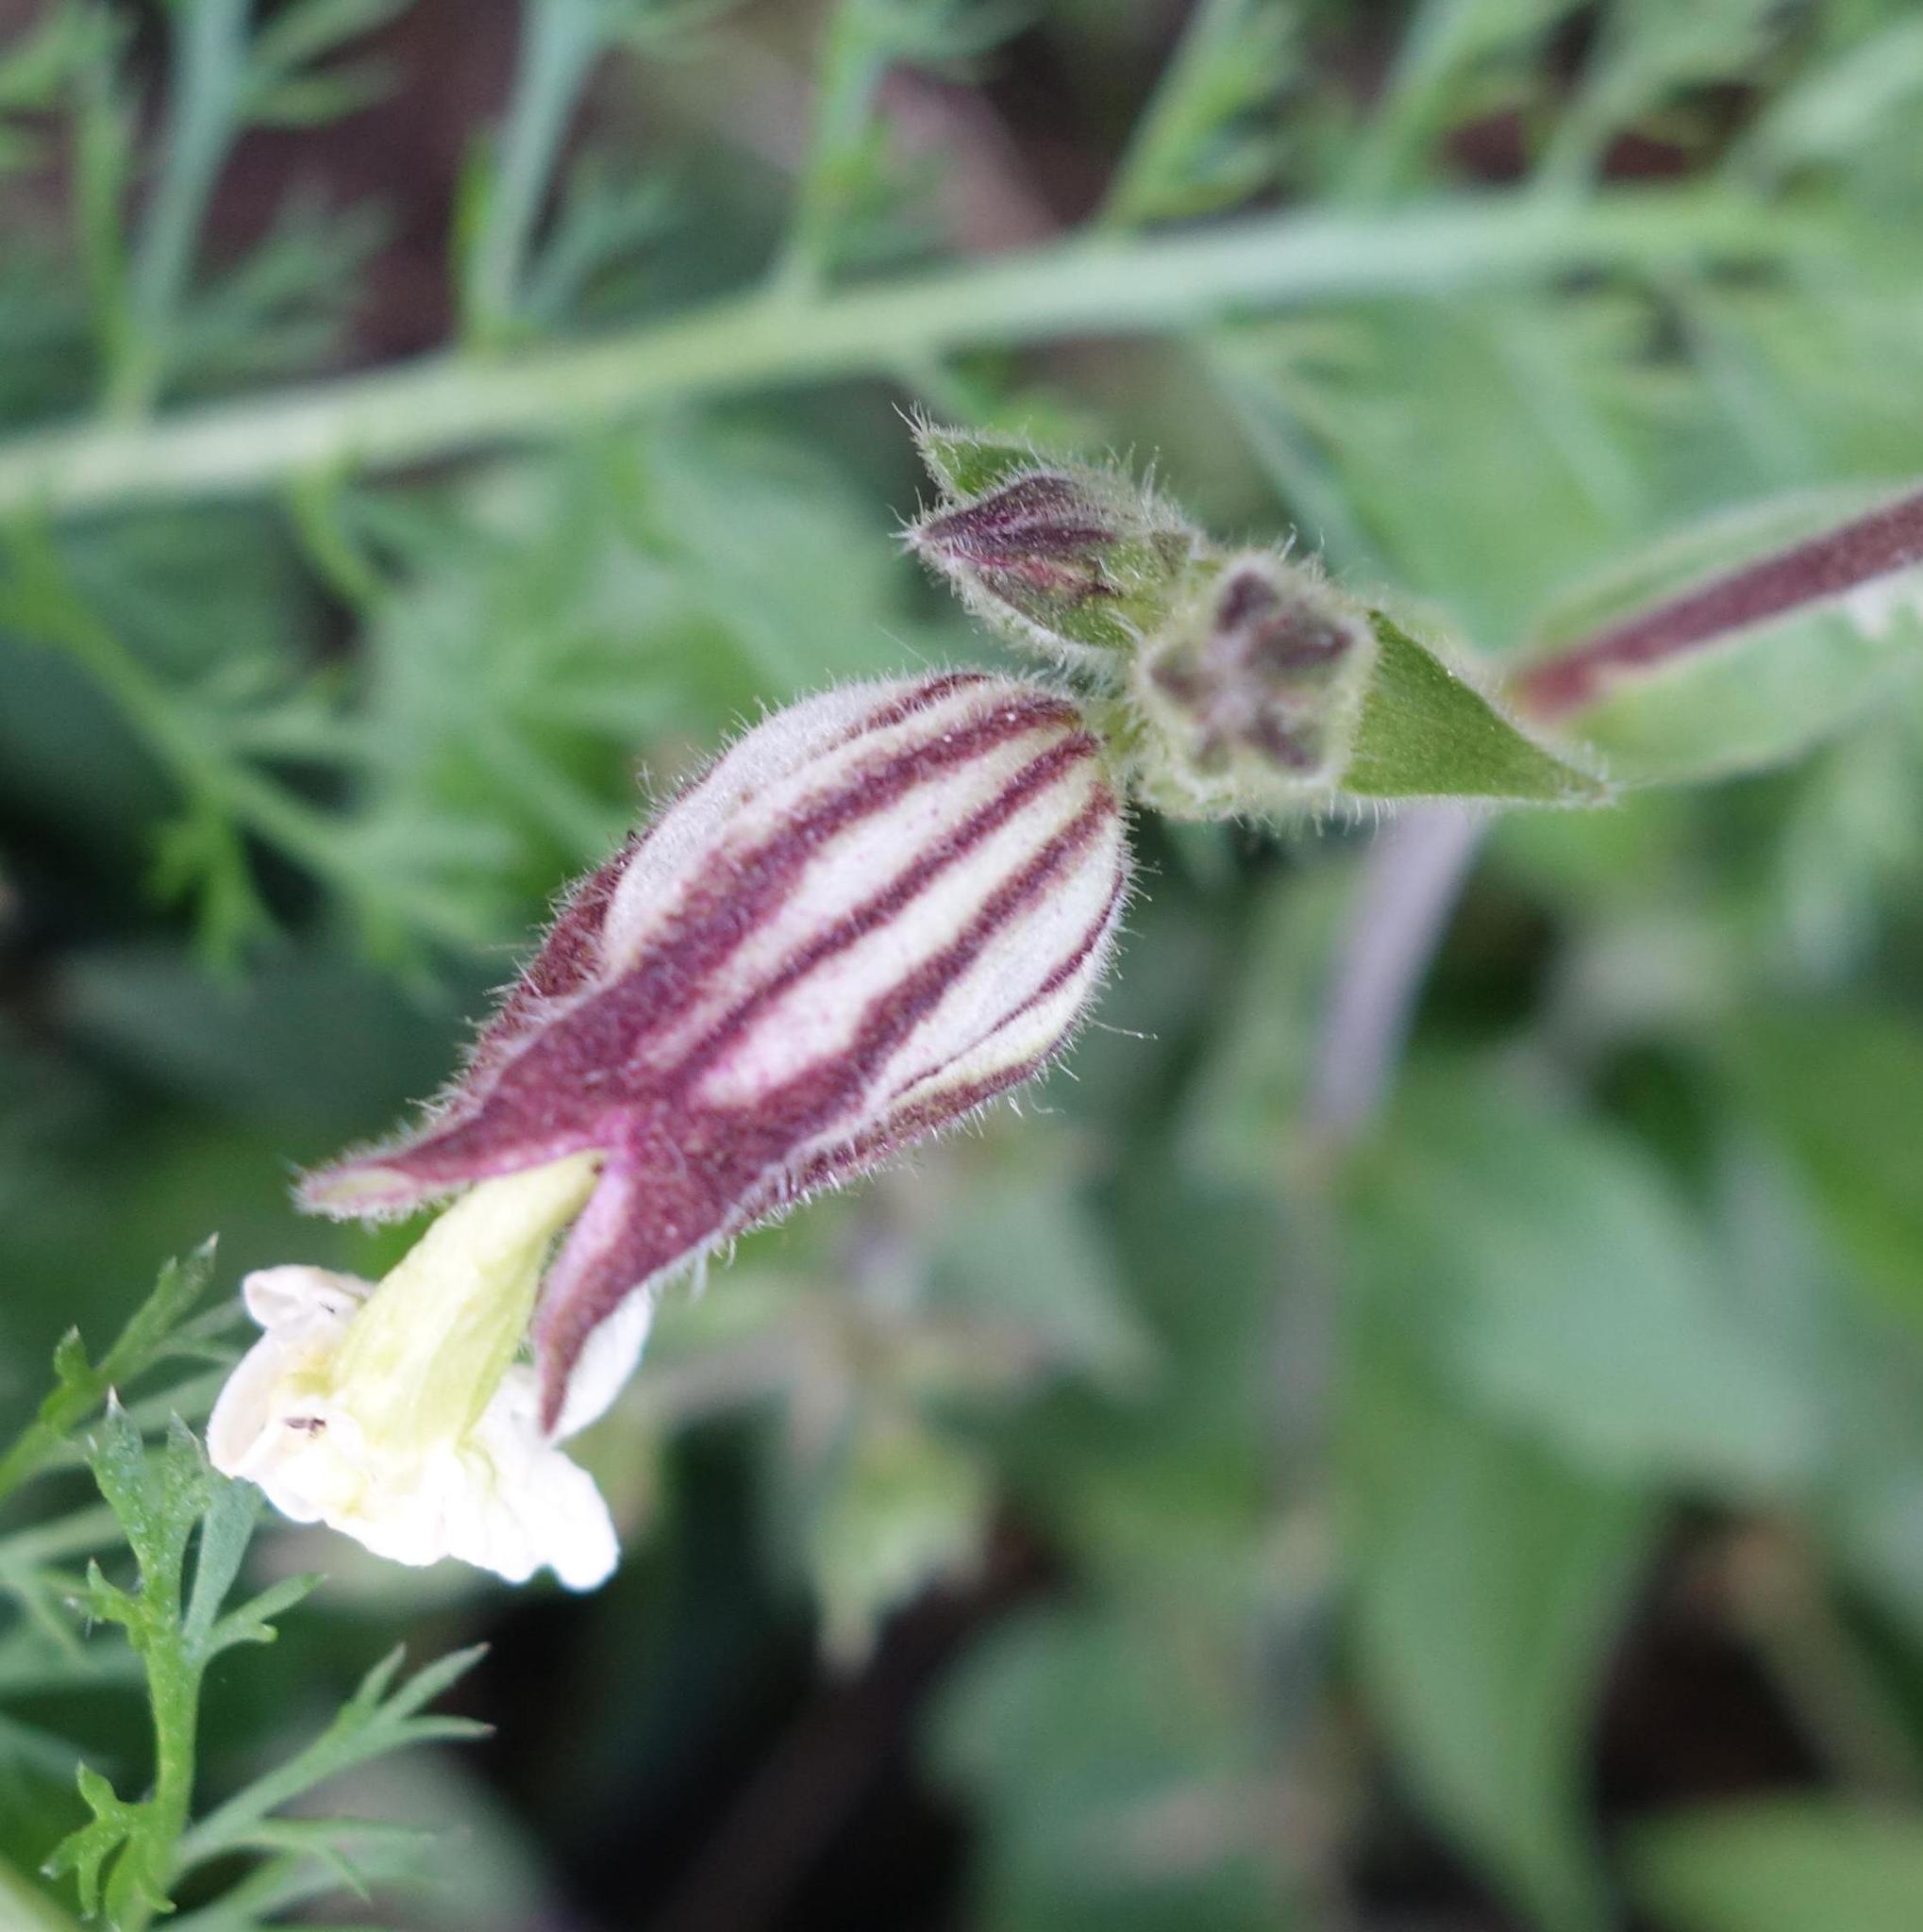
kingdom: Plantae
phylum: Tracheophyta
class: Magnoliopsida
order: Caryophyllales
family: Caryophyllaceae
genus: Silene
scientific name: Silene latifolia
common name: White campion
